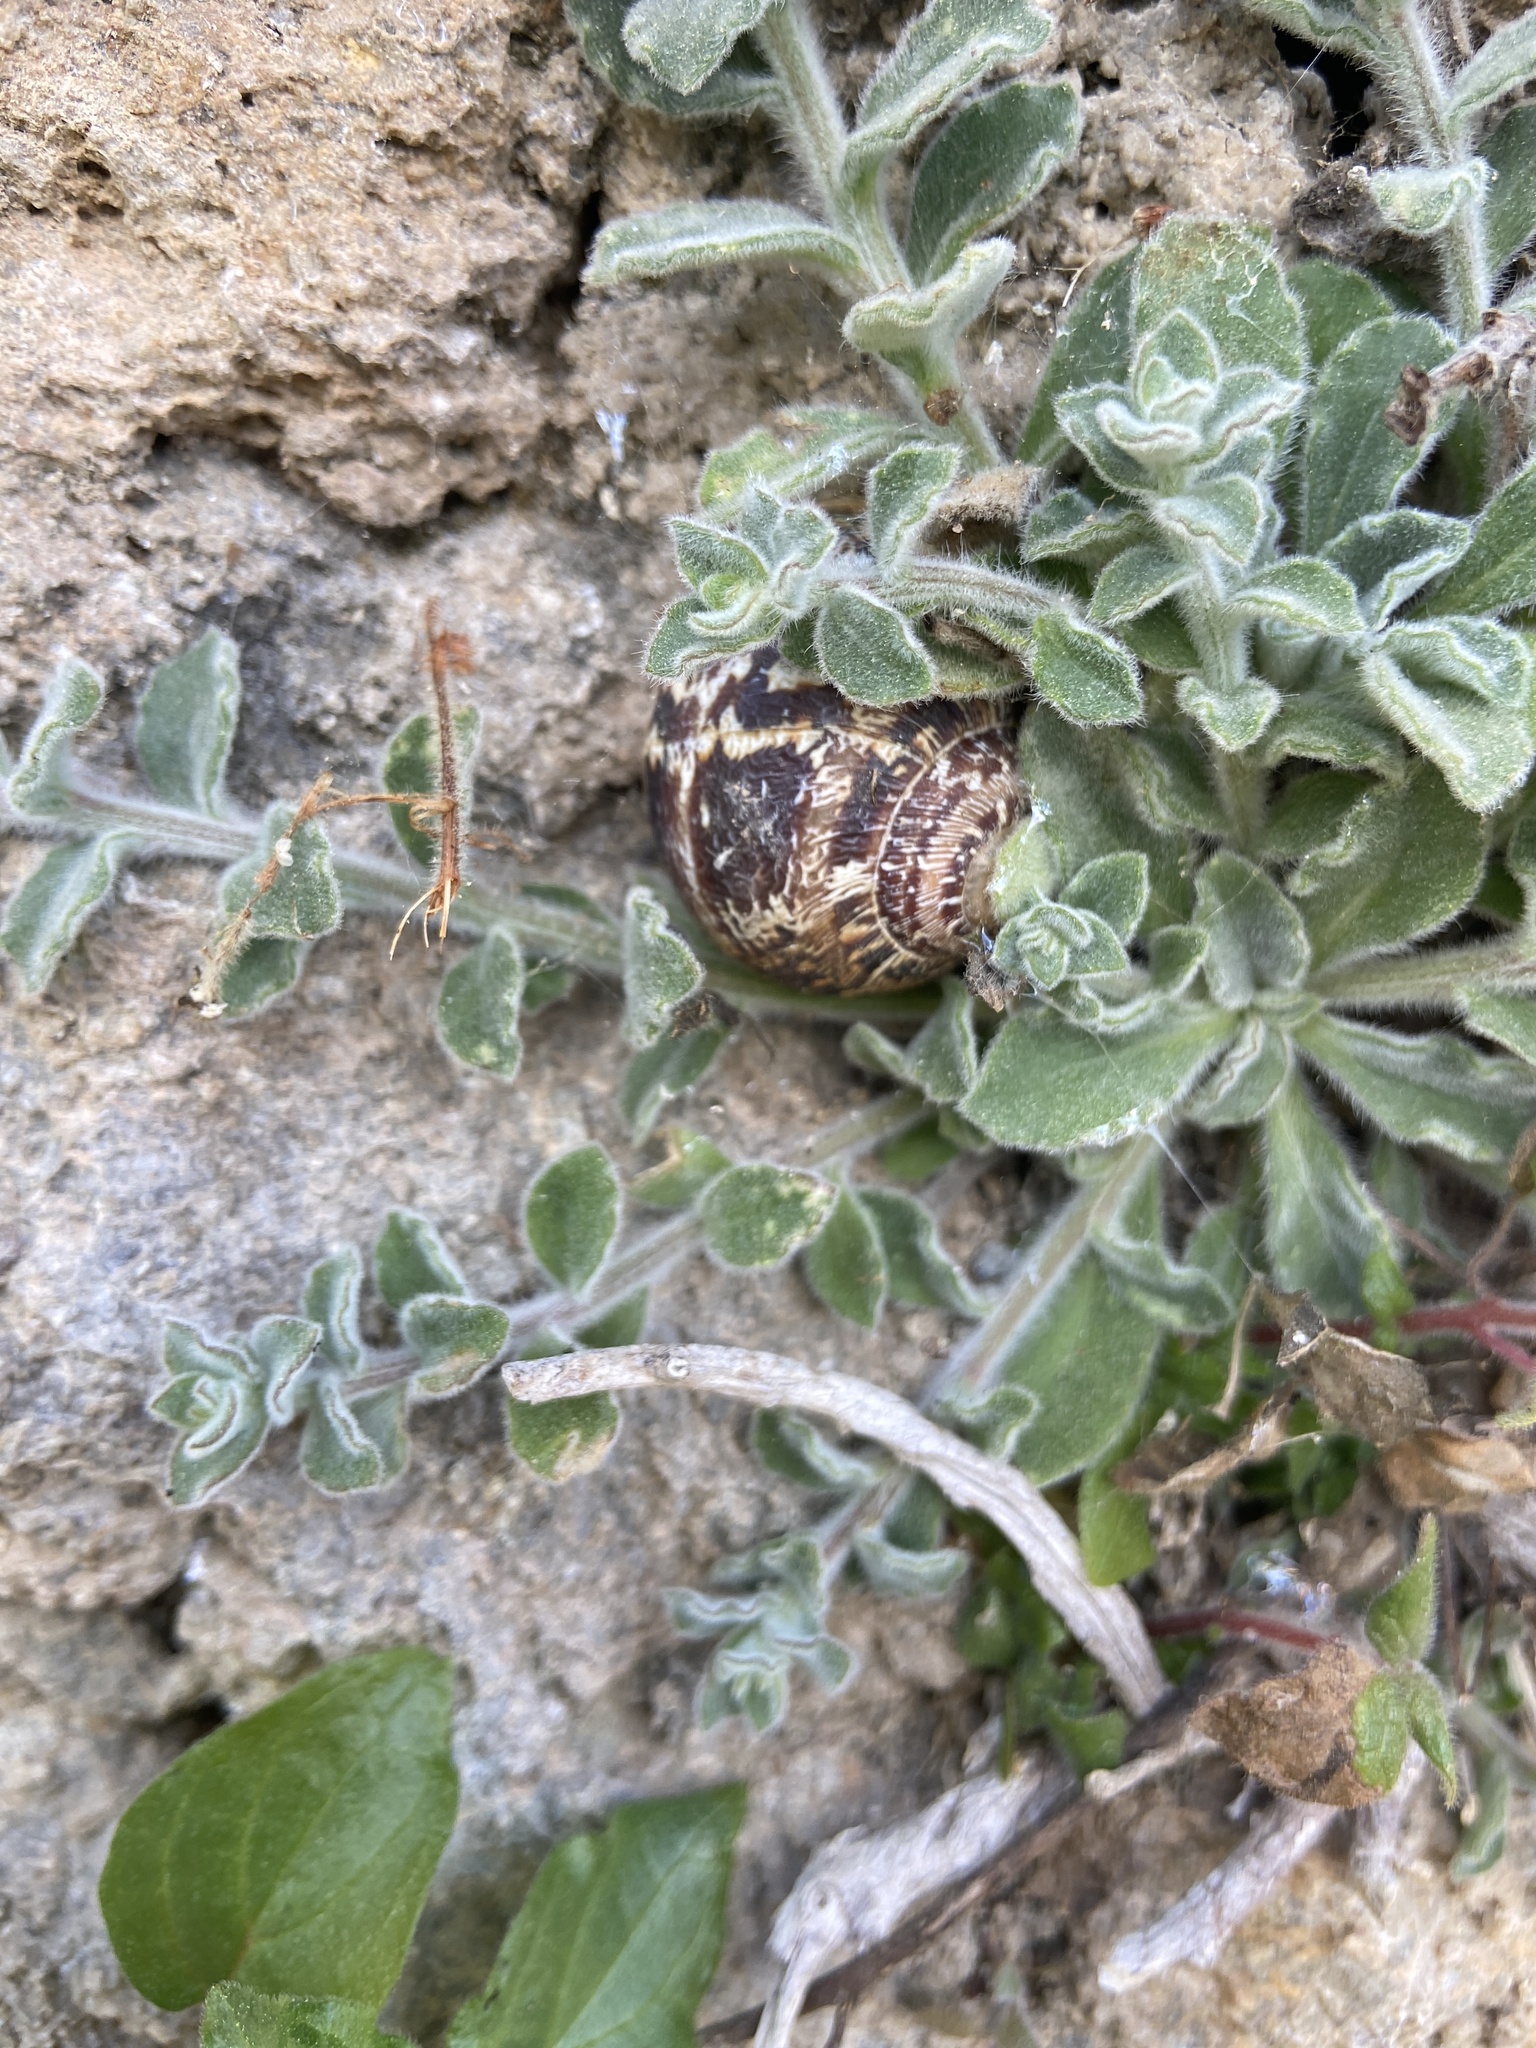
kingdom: Animalia
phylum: Mollusca
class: Gastropoda
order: Stylommatophora
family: Helicidae
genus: Cornu
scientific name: Cornu aspersum
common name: Brown garden snail
